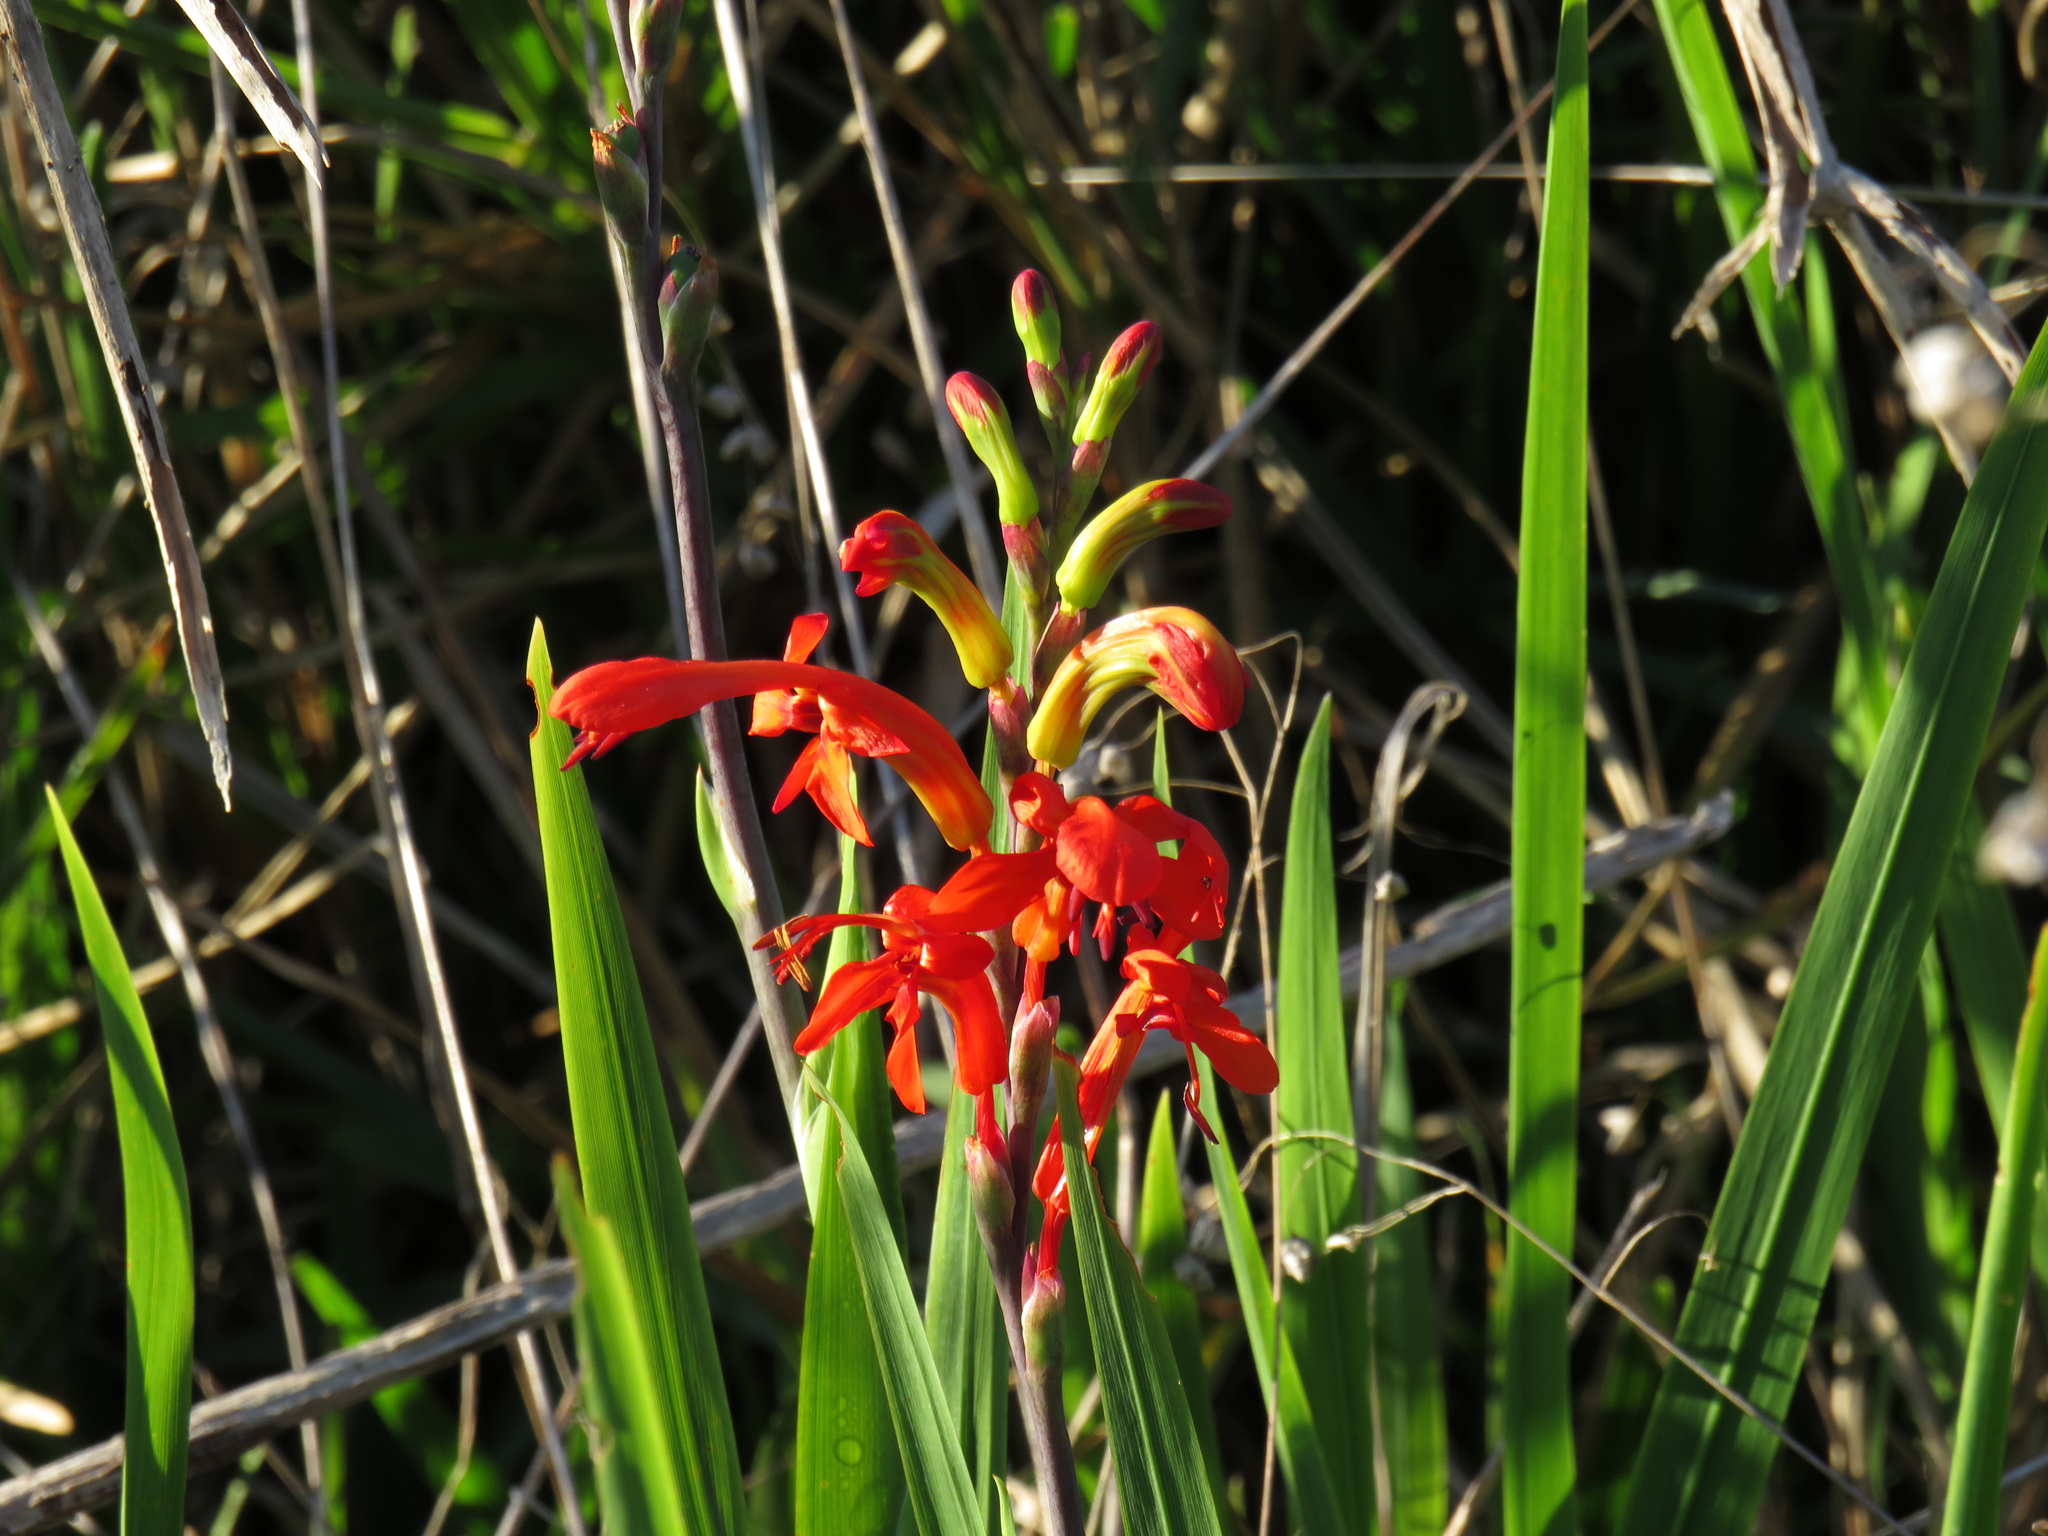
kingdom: Plantae
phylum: Tracheophyta
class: Liliopsida
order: Asparagales
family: Iridaceae
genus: Chasmanthe
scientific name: Chasmanthe aethiopica
